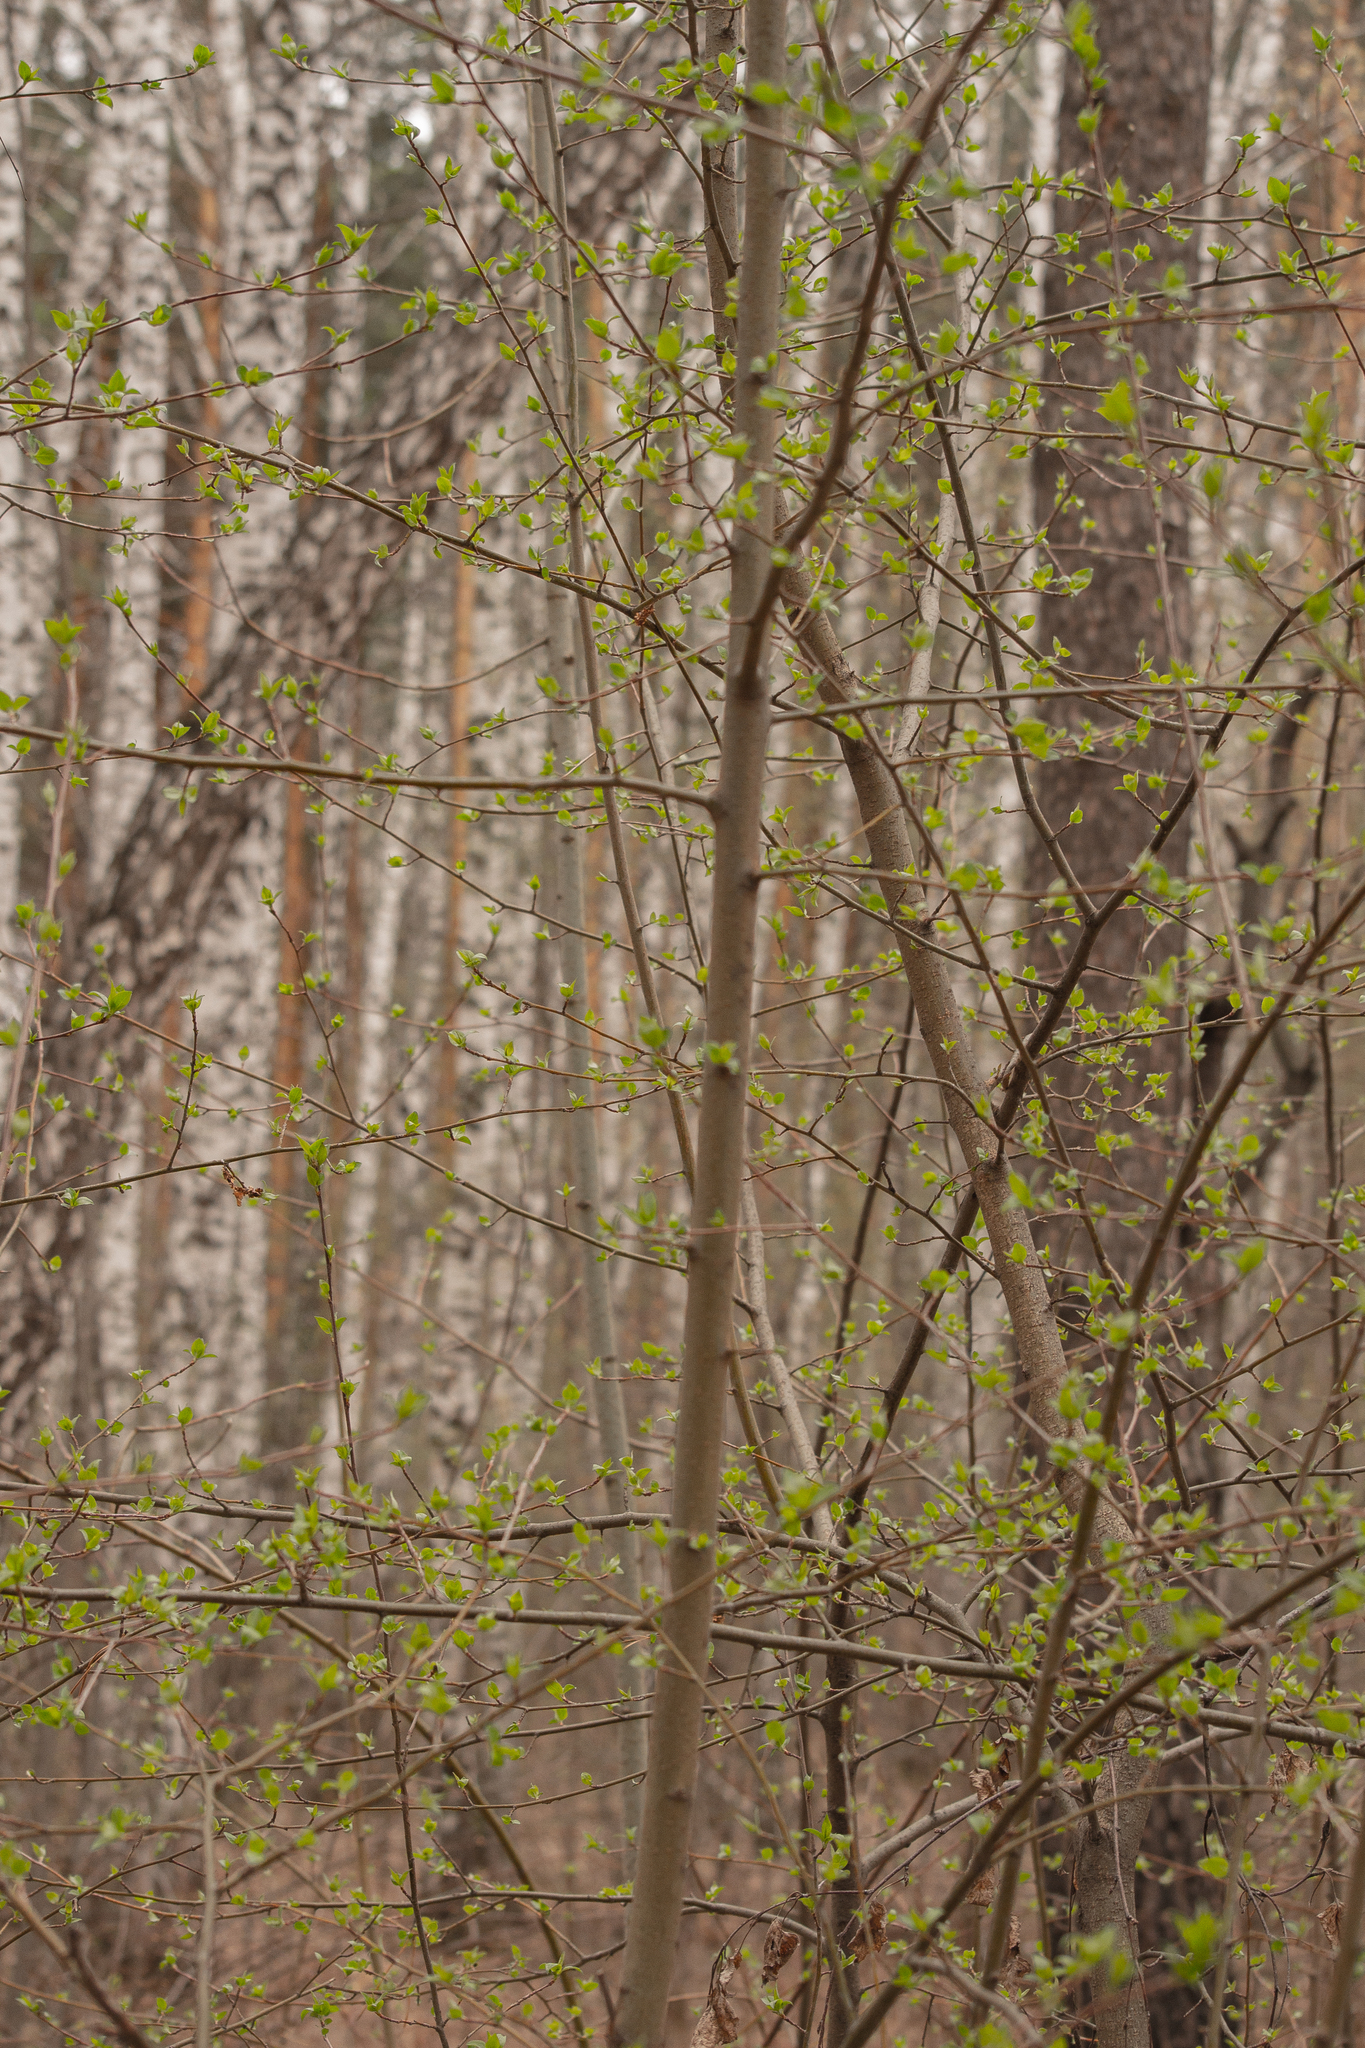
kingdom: Plantae
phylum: Tracheophyta
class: Magnoliopsida
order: Rosales
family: Rosaceae
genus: Malus
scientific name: Malus baccata
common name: Siberian crab
